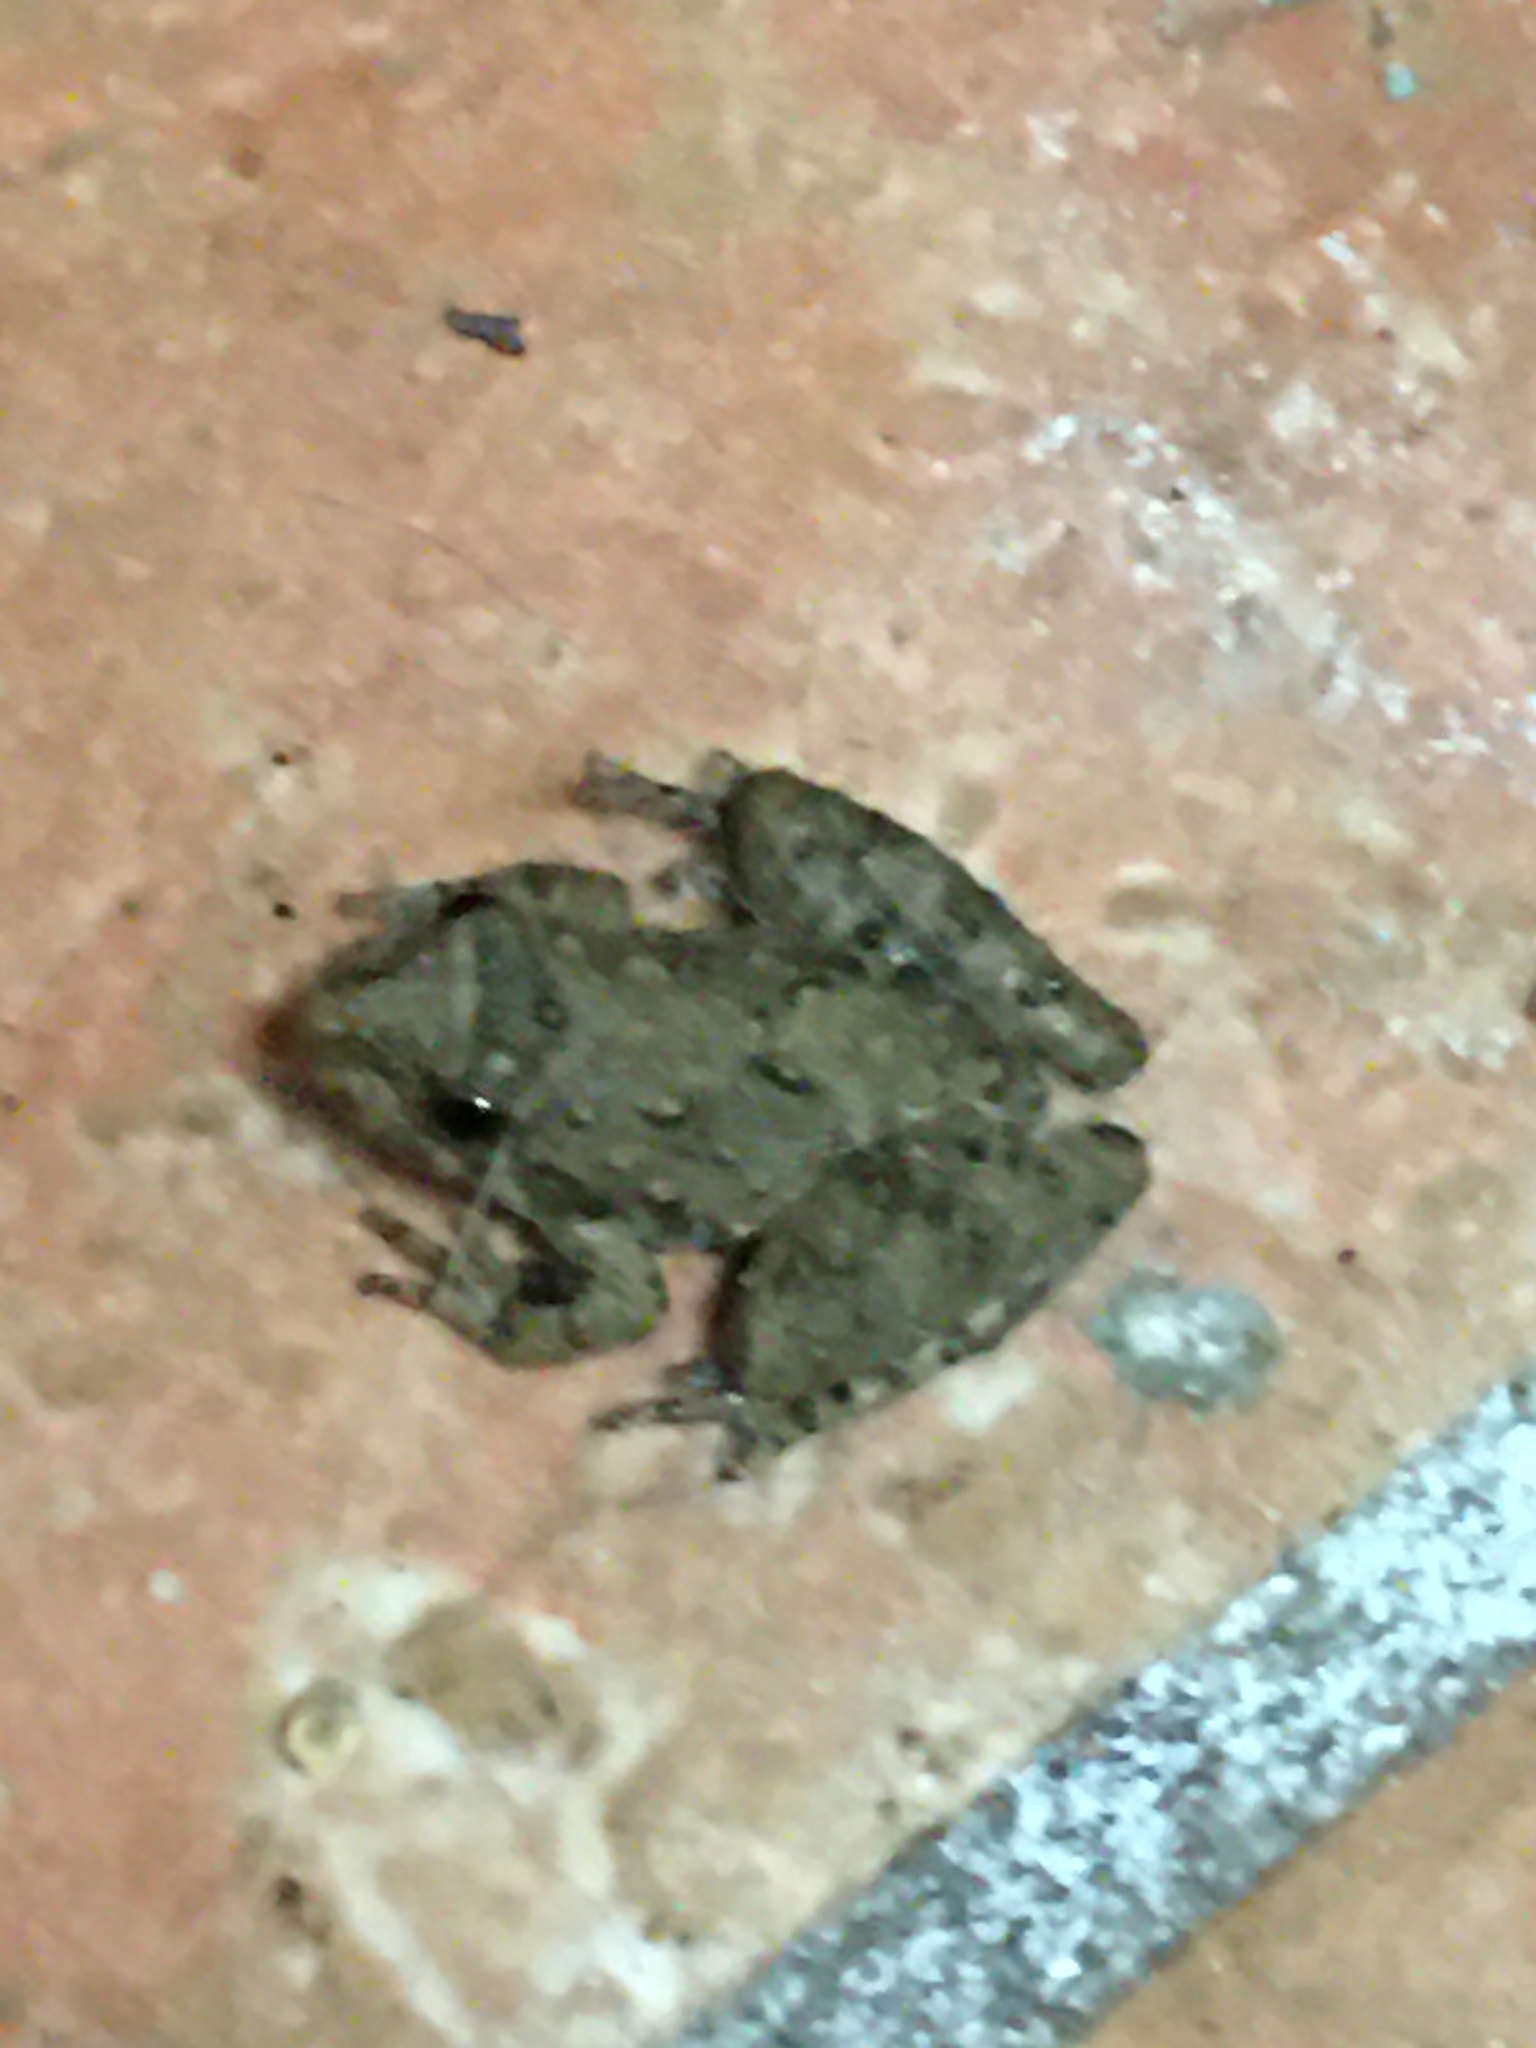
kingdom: Animalia
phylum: Chordata
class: Amphibia
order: Anura
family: Hylidae
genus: Acris
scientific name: Acris blanchardi
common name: Blanchard's cricket frog
